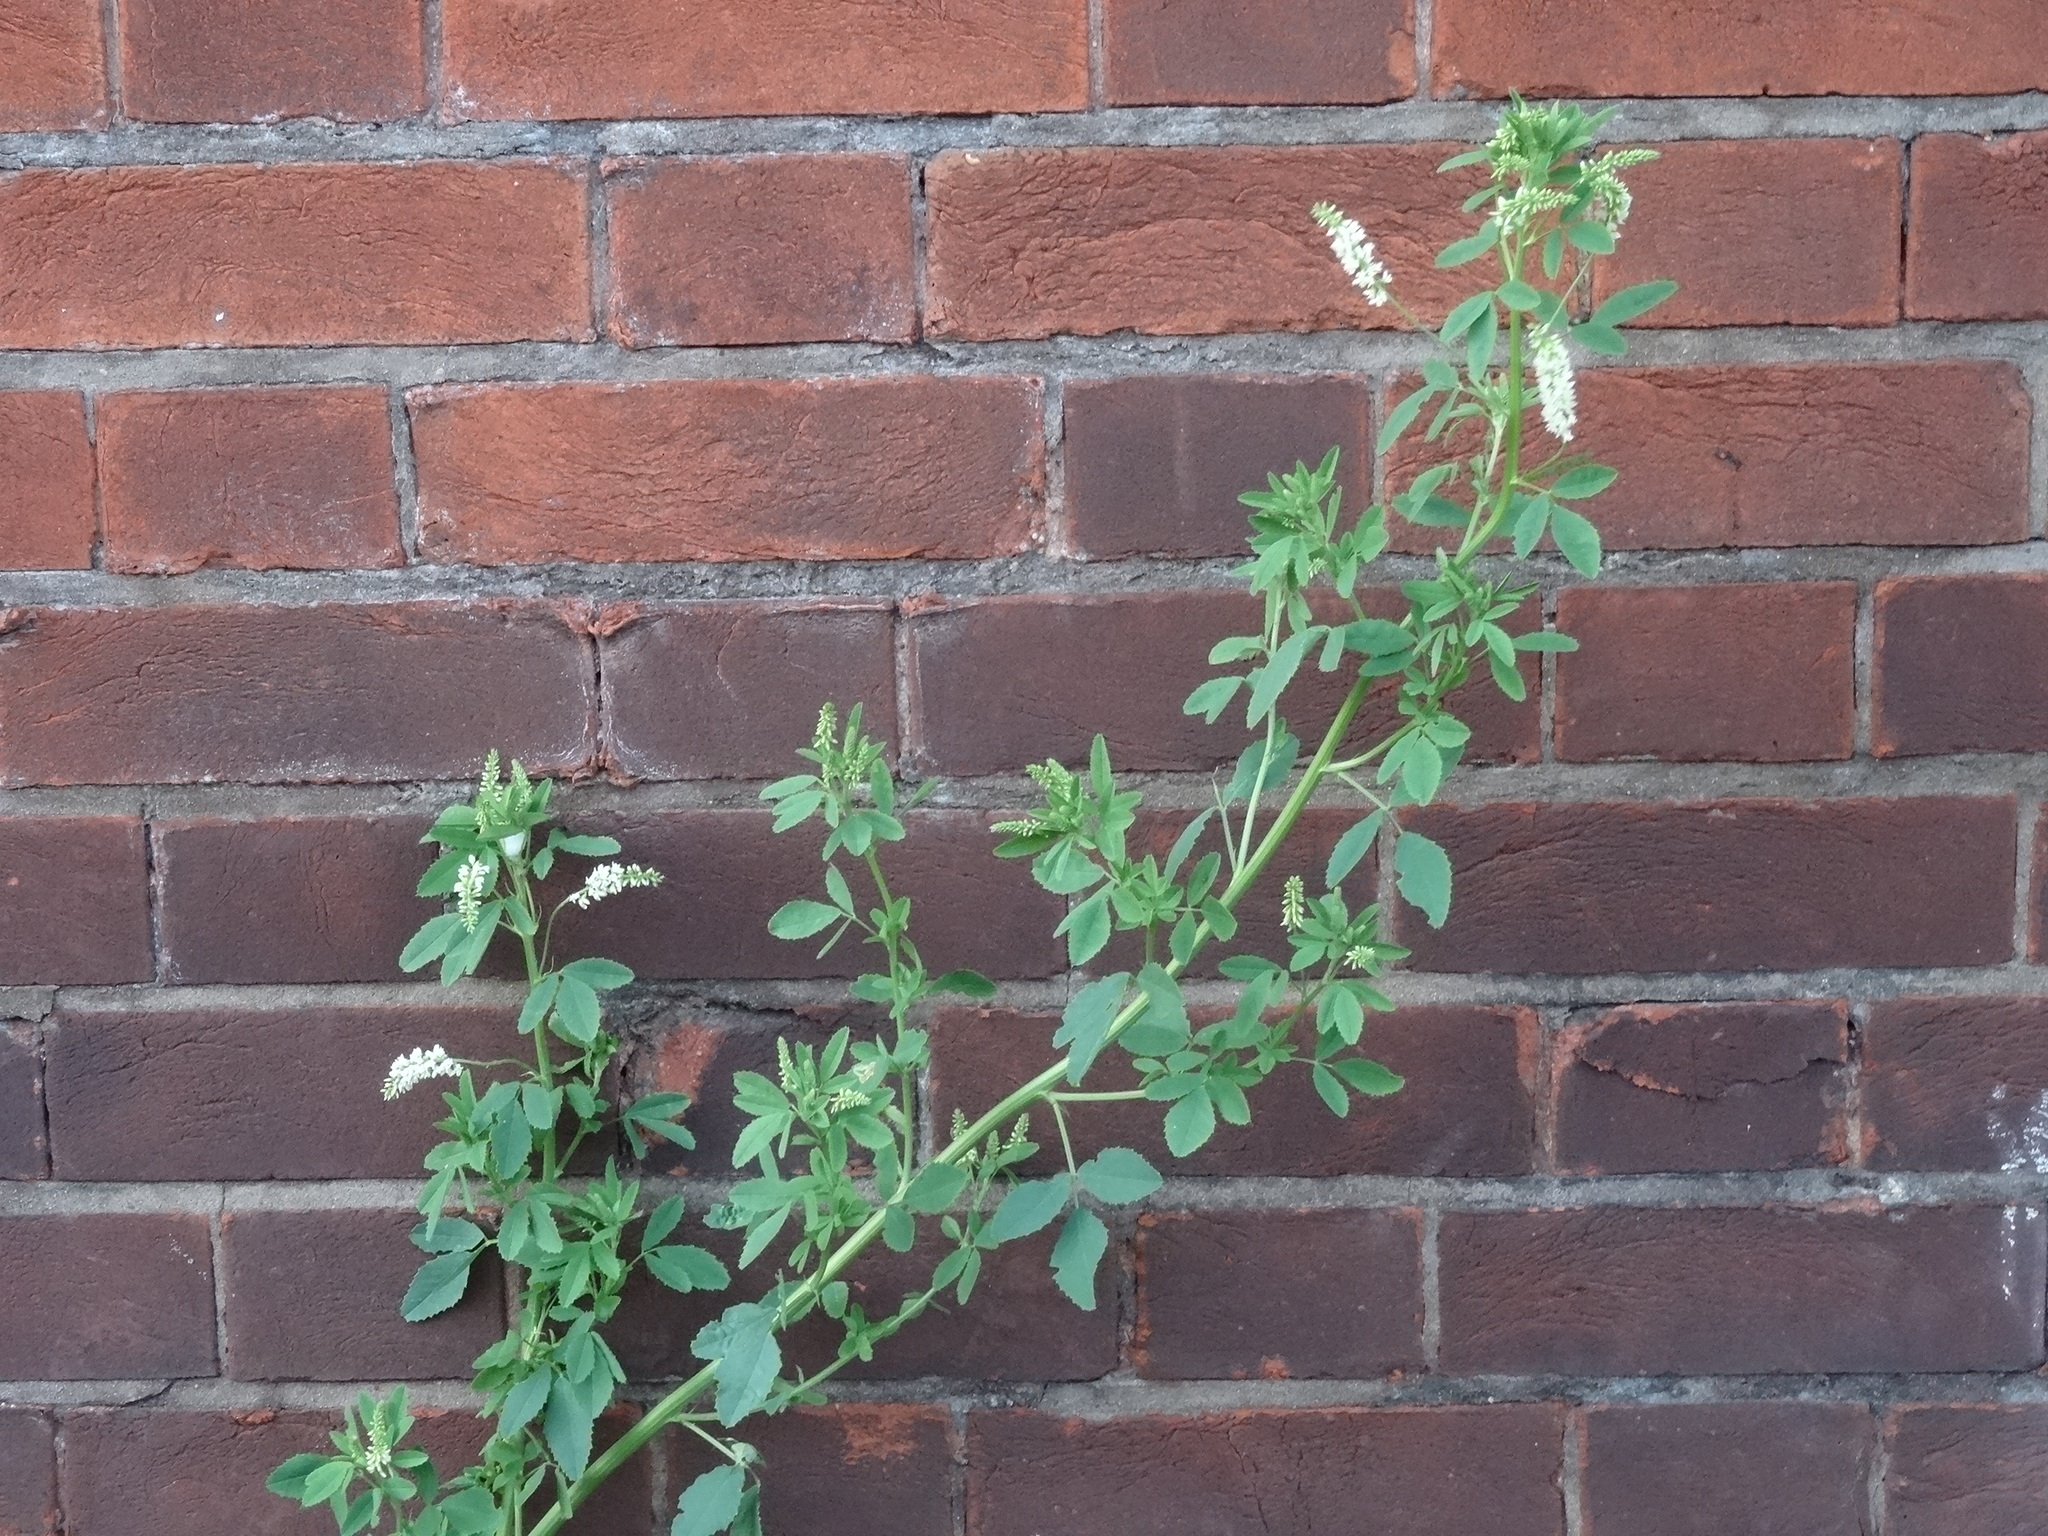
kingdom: Plantae
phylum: Tracheophyta
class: Magnoliopsida
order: Fabales
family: Fabaceae
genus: Melilotus
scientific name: Melilotus albus
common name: White melilot
